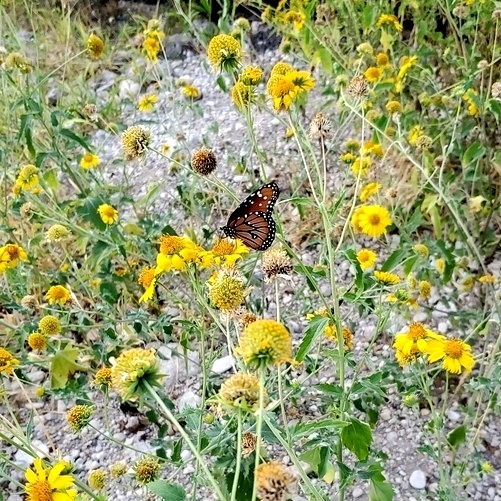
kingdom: Animalia
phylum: Arthropoda
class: Insecta
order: Lepidoptera
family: Nymphalidae
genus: Danaus
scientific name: Danaus gilippus
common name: Queen
